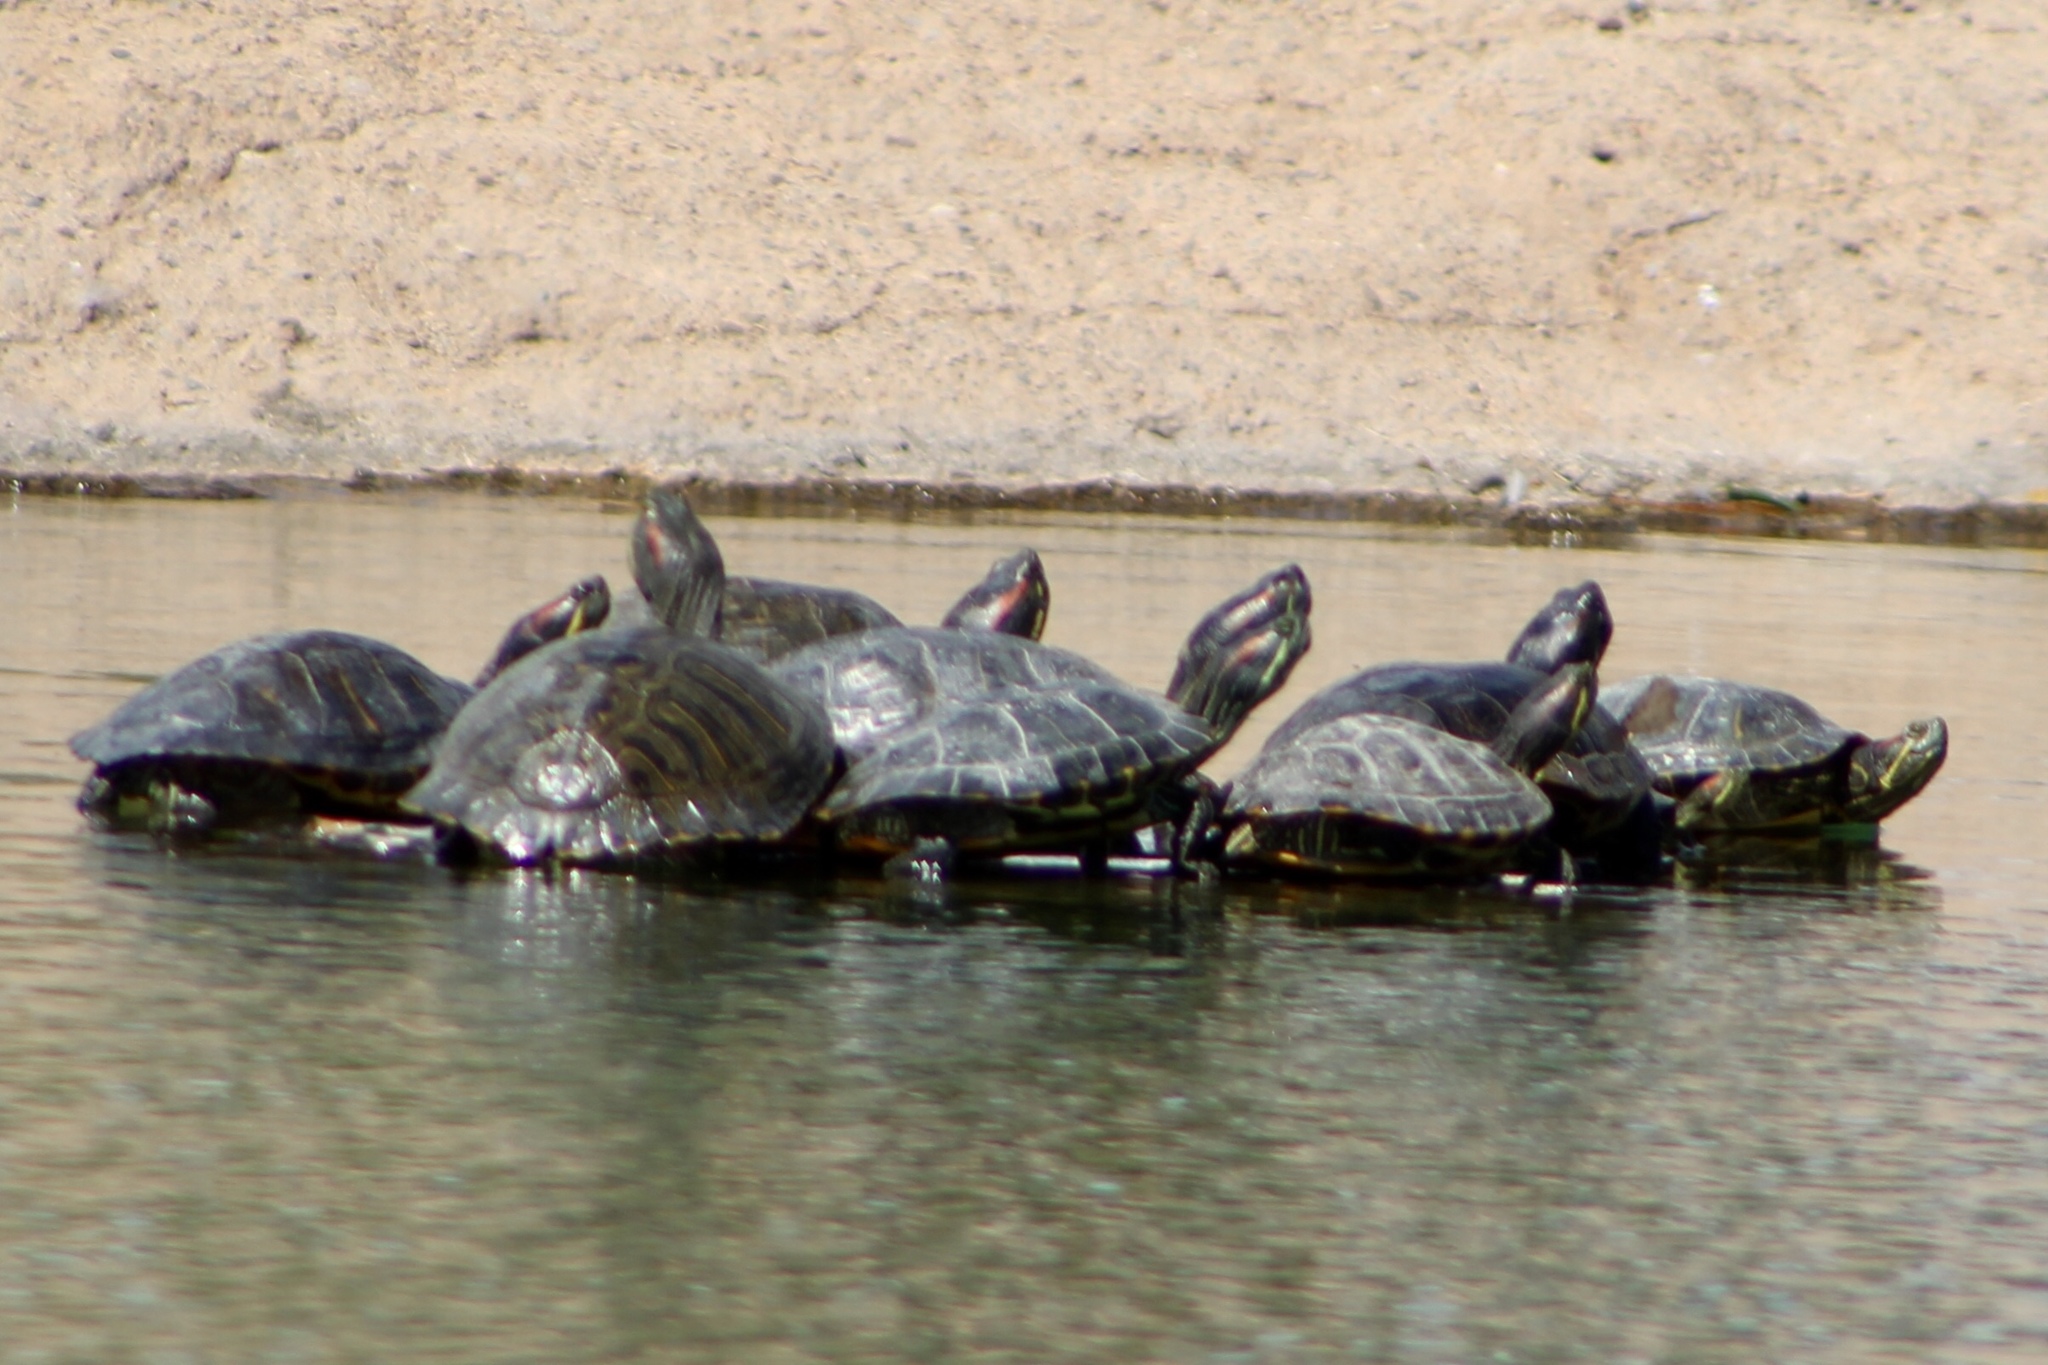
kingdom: Animalia
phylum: Chordata
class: Testudines
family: Emydidae
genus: Trachemys
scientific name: Trachemys scripta
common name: Slider
